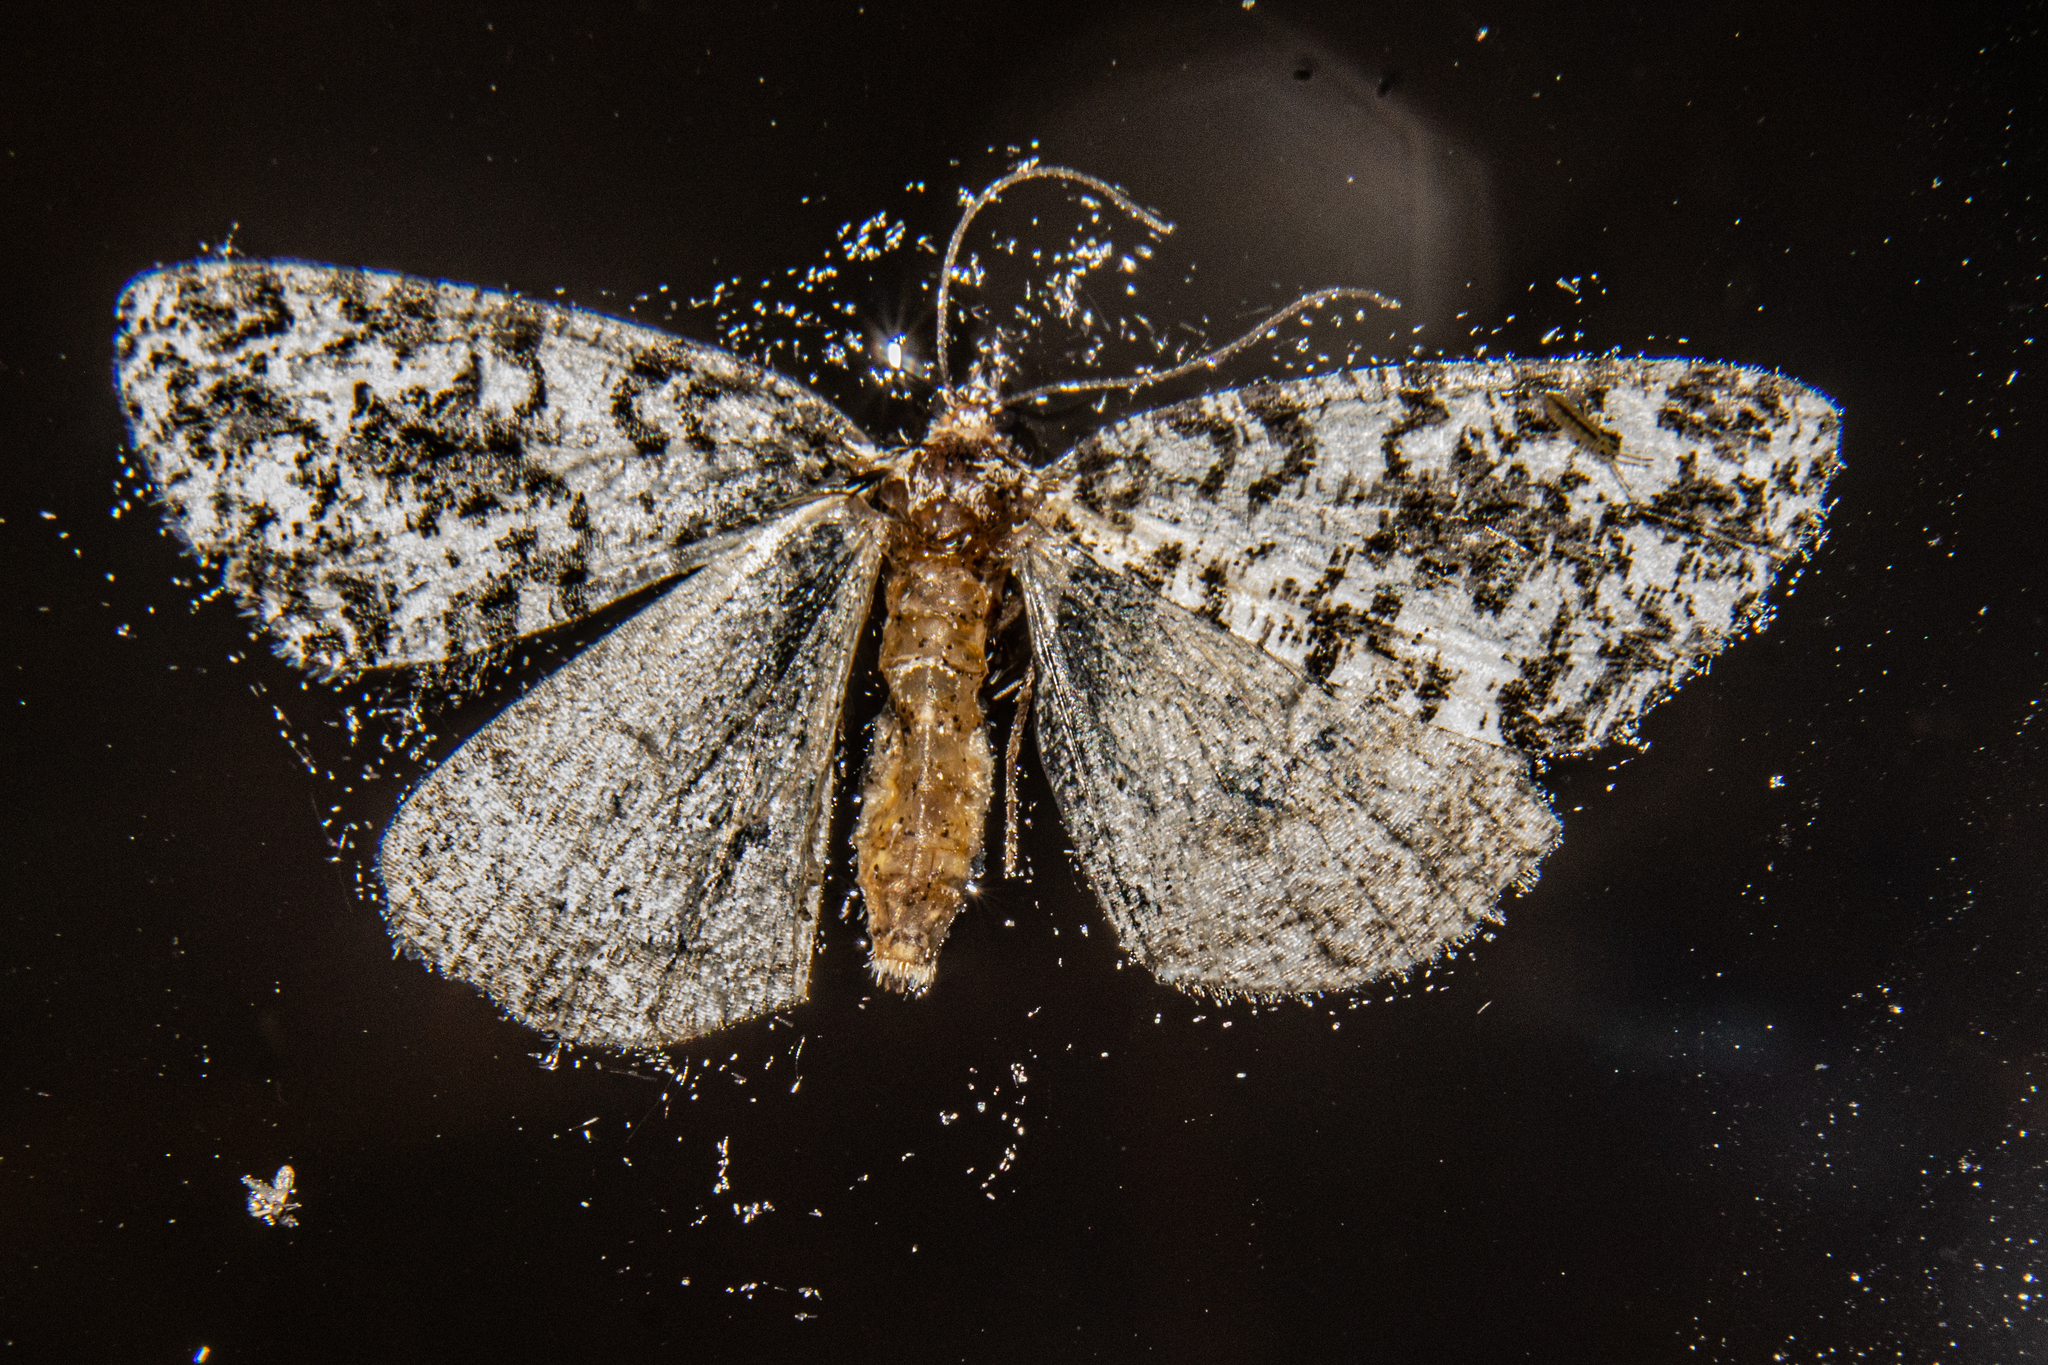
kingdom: Animalia
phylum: Arthropoda
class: Insecta
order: Lepidoptera
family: Geometridae
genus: Pseudocoremia
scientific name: Pseudocoremia monacha
